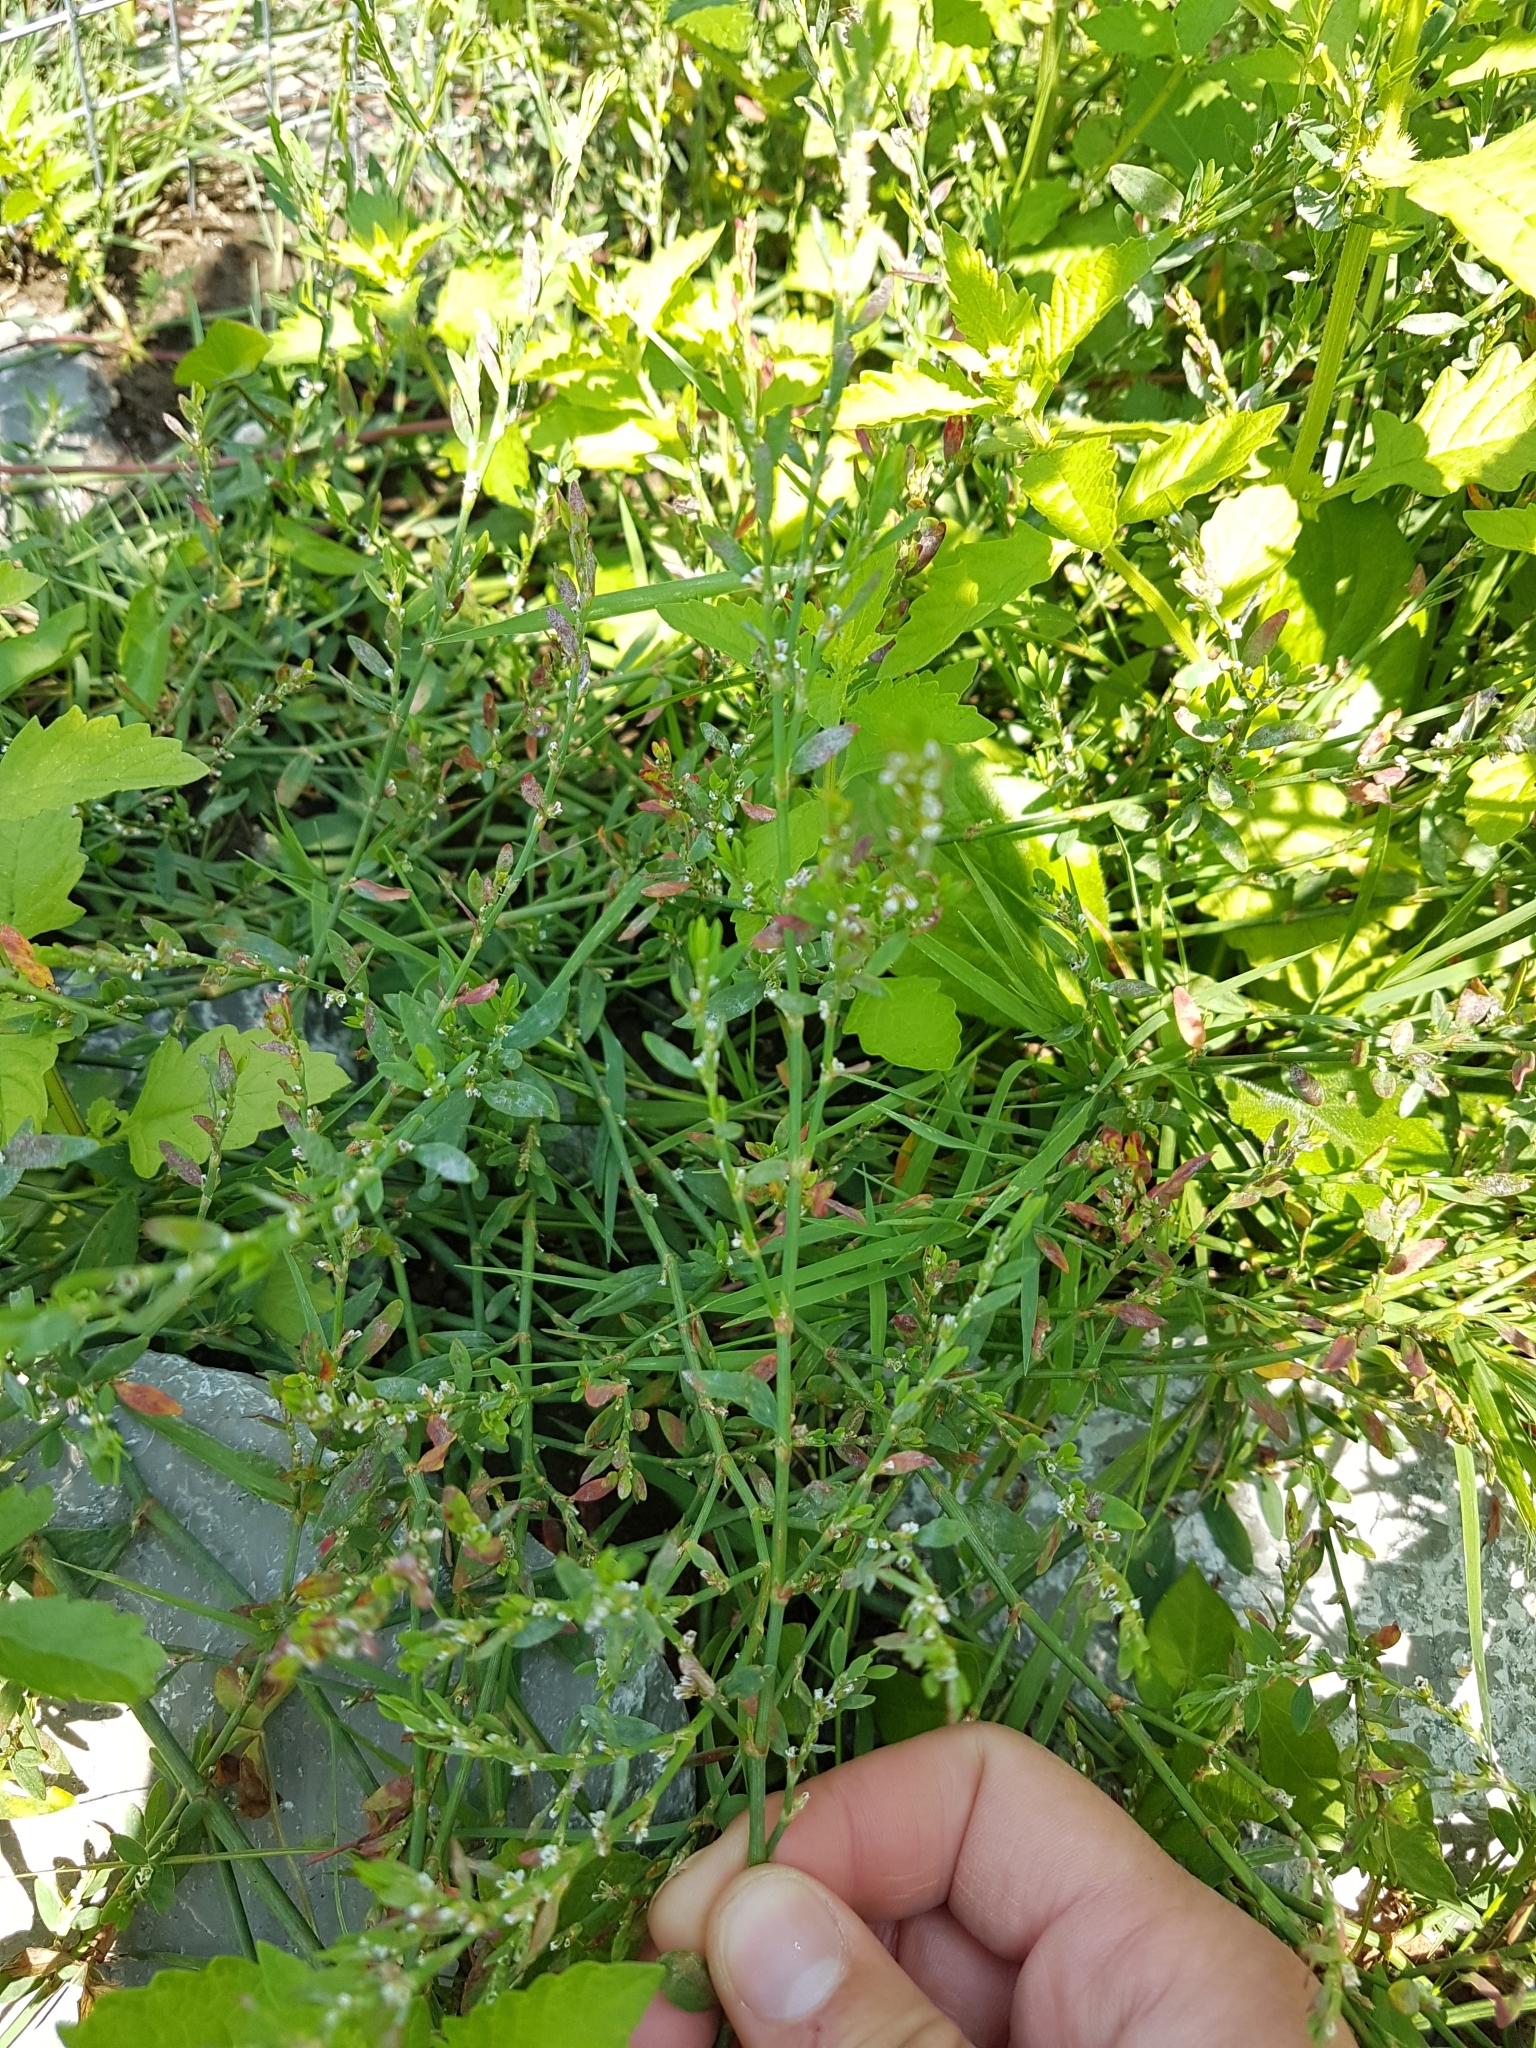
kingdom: Plantae
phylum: Tracheophyta
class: Magnoliopsida
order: Caryophyllales
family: Polygonaceae
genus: Polygonum
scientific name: Polygonum aviculare
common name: Prostrate knotweed
